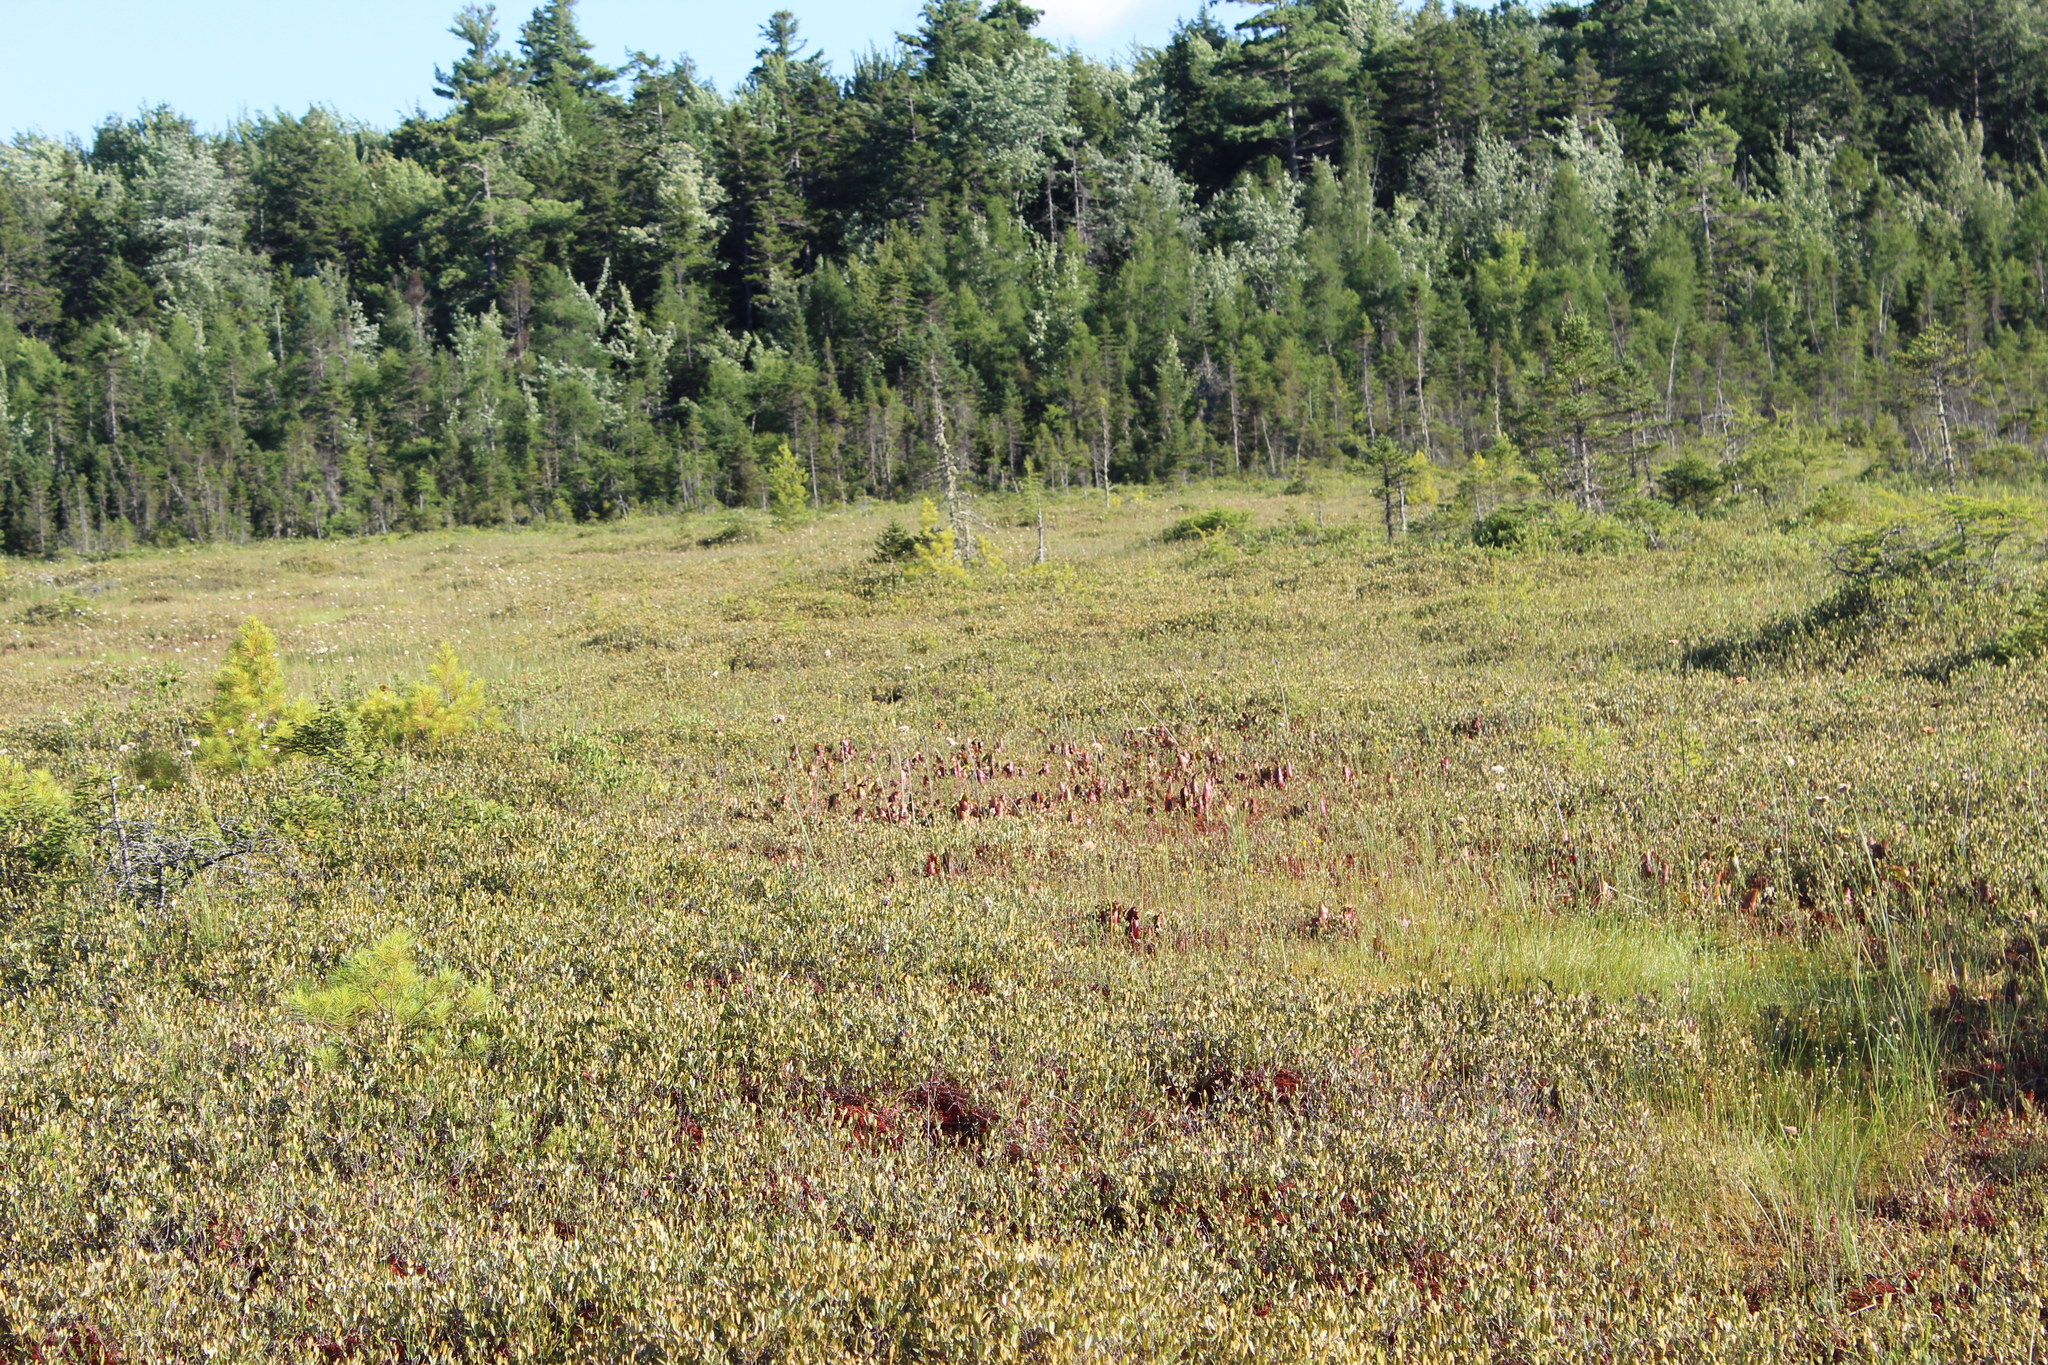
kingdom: Plantae
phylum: Tracheophyta
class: Magnoliopsida
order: Ericales
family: Sarraceniaceae
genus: Sarracenia
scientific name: Sarracenia purpurea
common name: Pitcherplant
